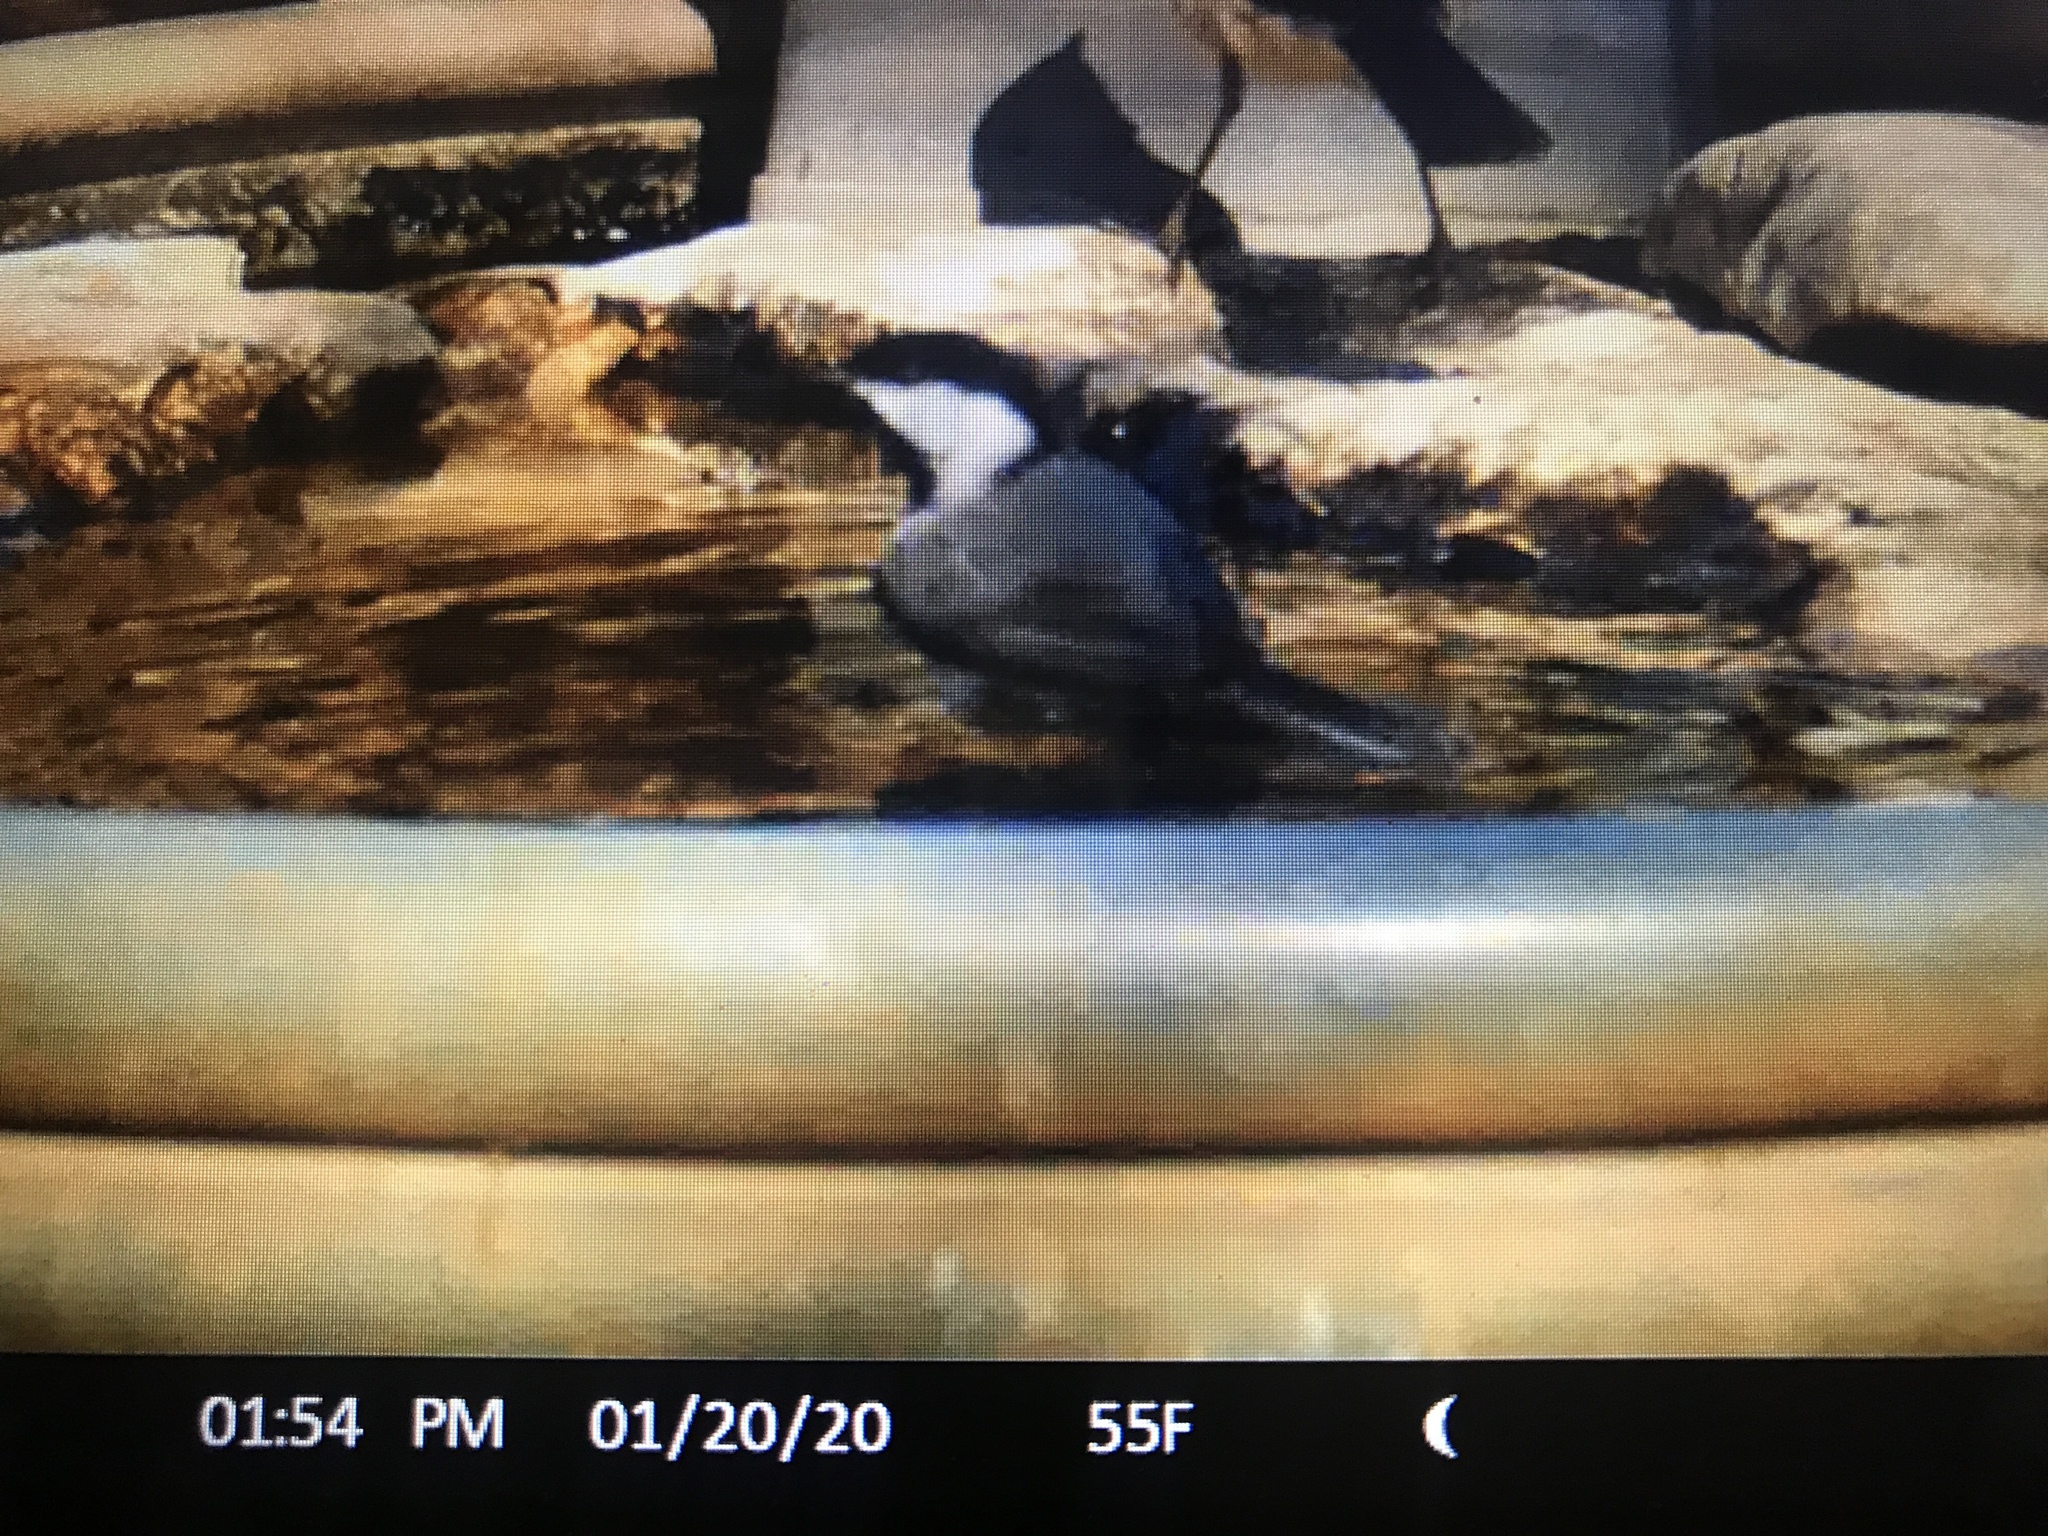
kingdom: Animalia
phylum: Chordata
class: Aves
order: Passeriformes
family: Paridae
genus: Poecile
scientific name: Poecile carolinensis
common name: Carolina chickadee
